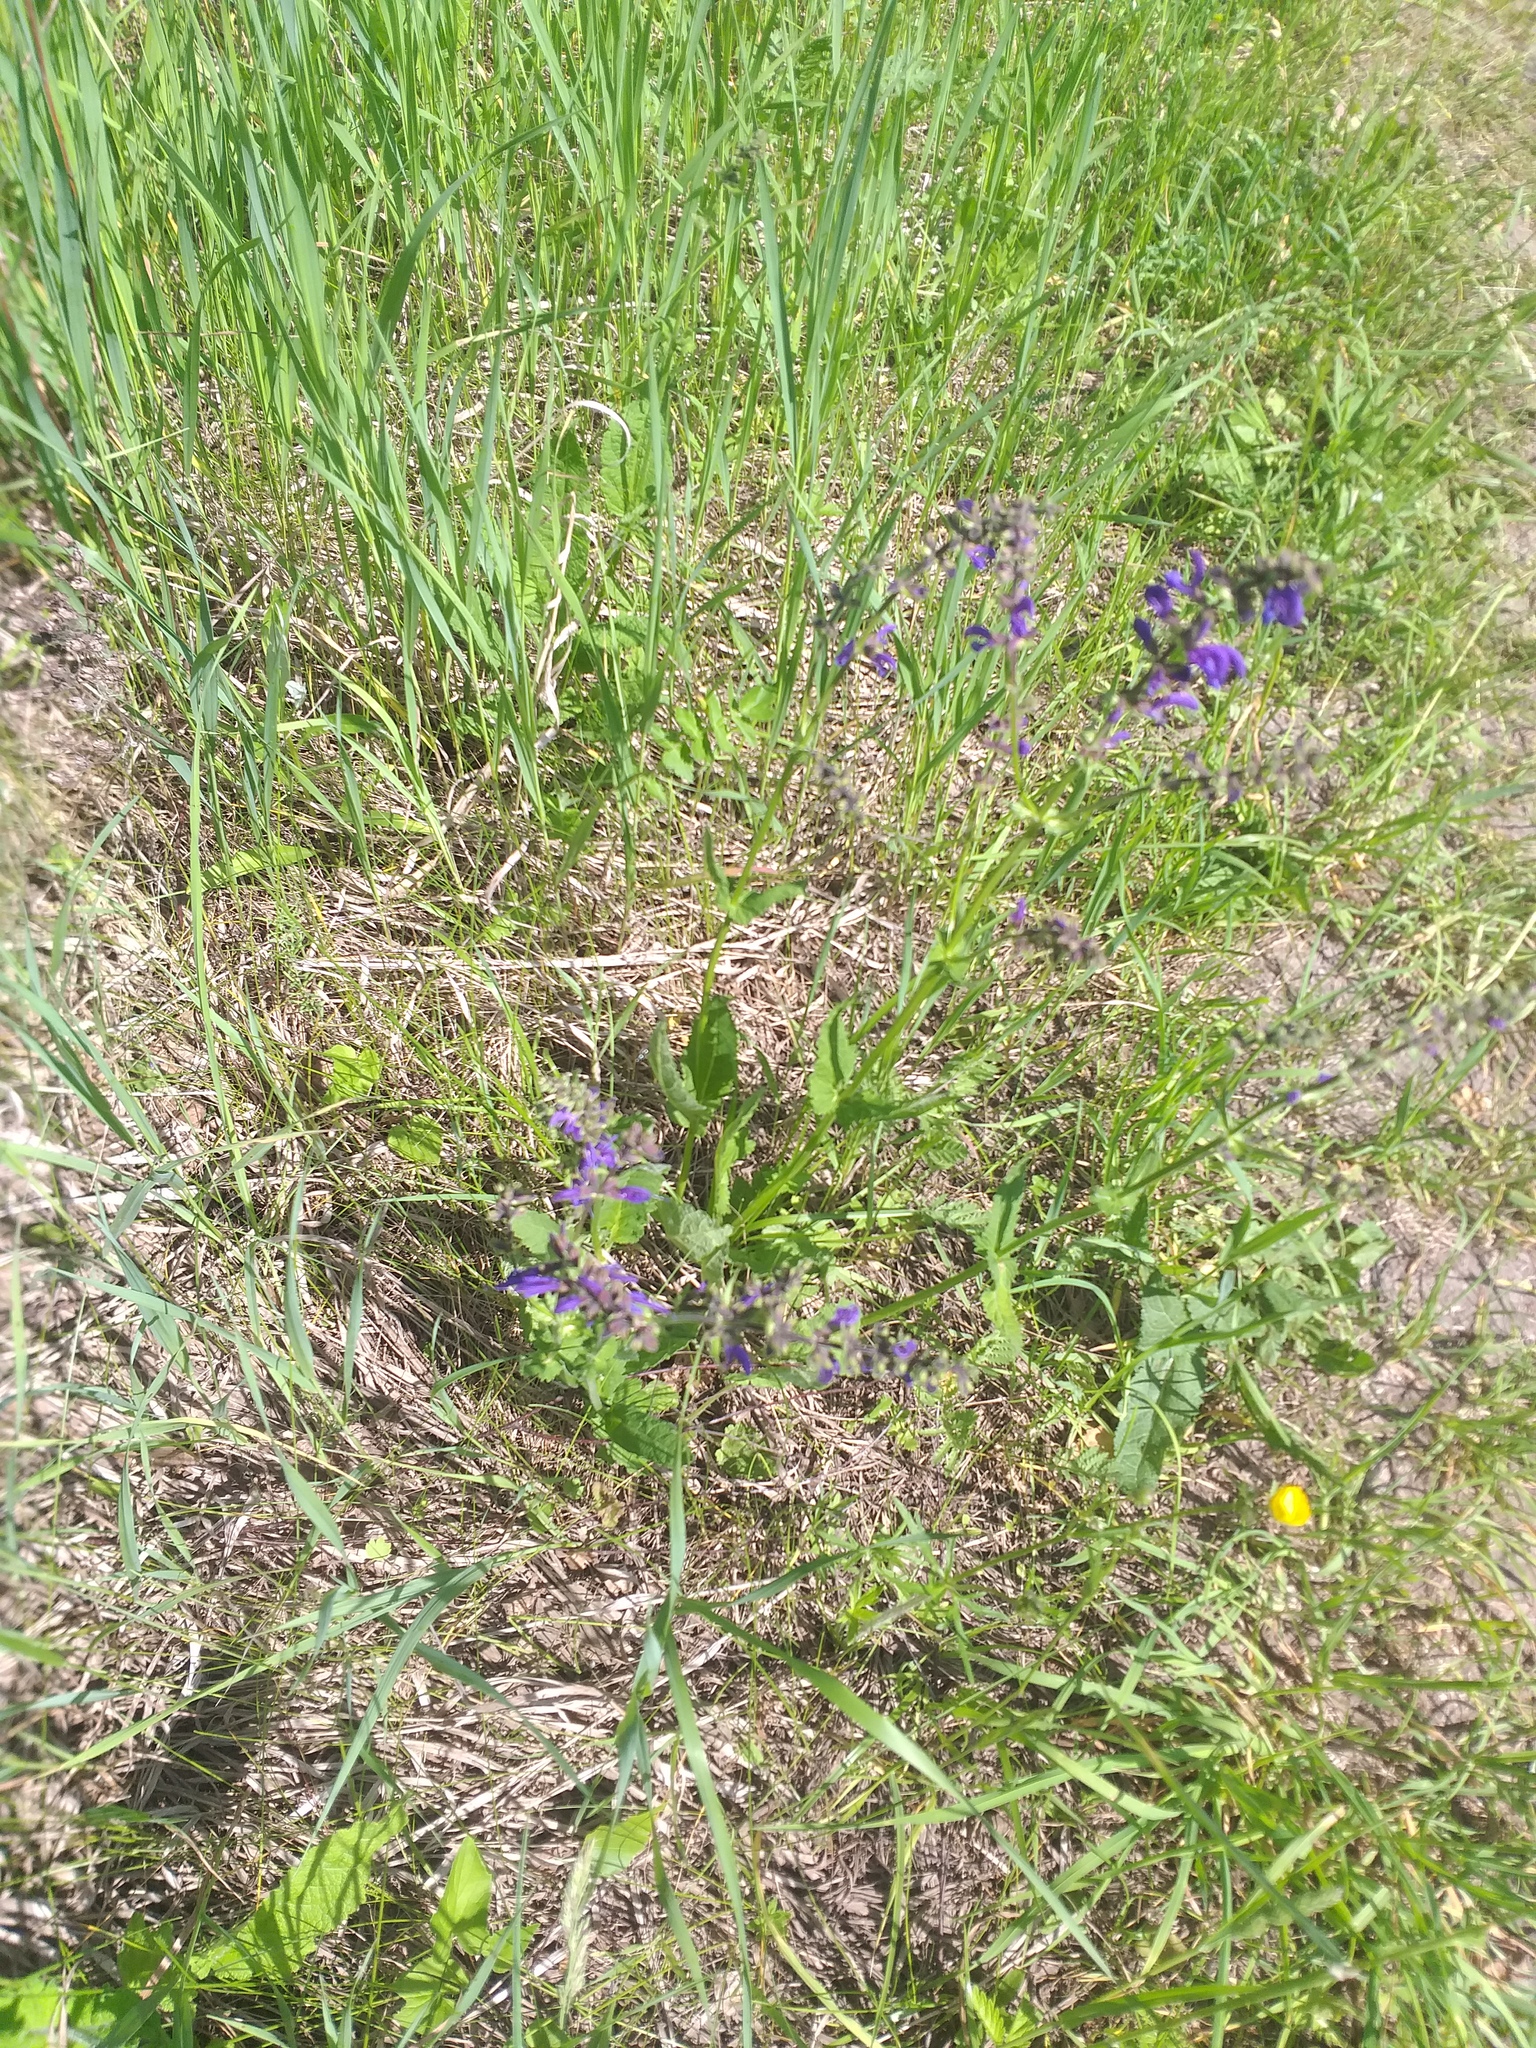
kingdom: Plantae
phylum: Tracheophyta
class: Magnoliopsida
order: Lamiales
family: Lamiaceae
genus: Salvia
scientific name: Salvia pratensis
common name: Meadow sage
